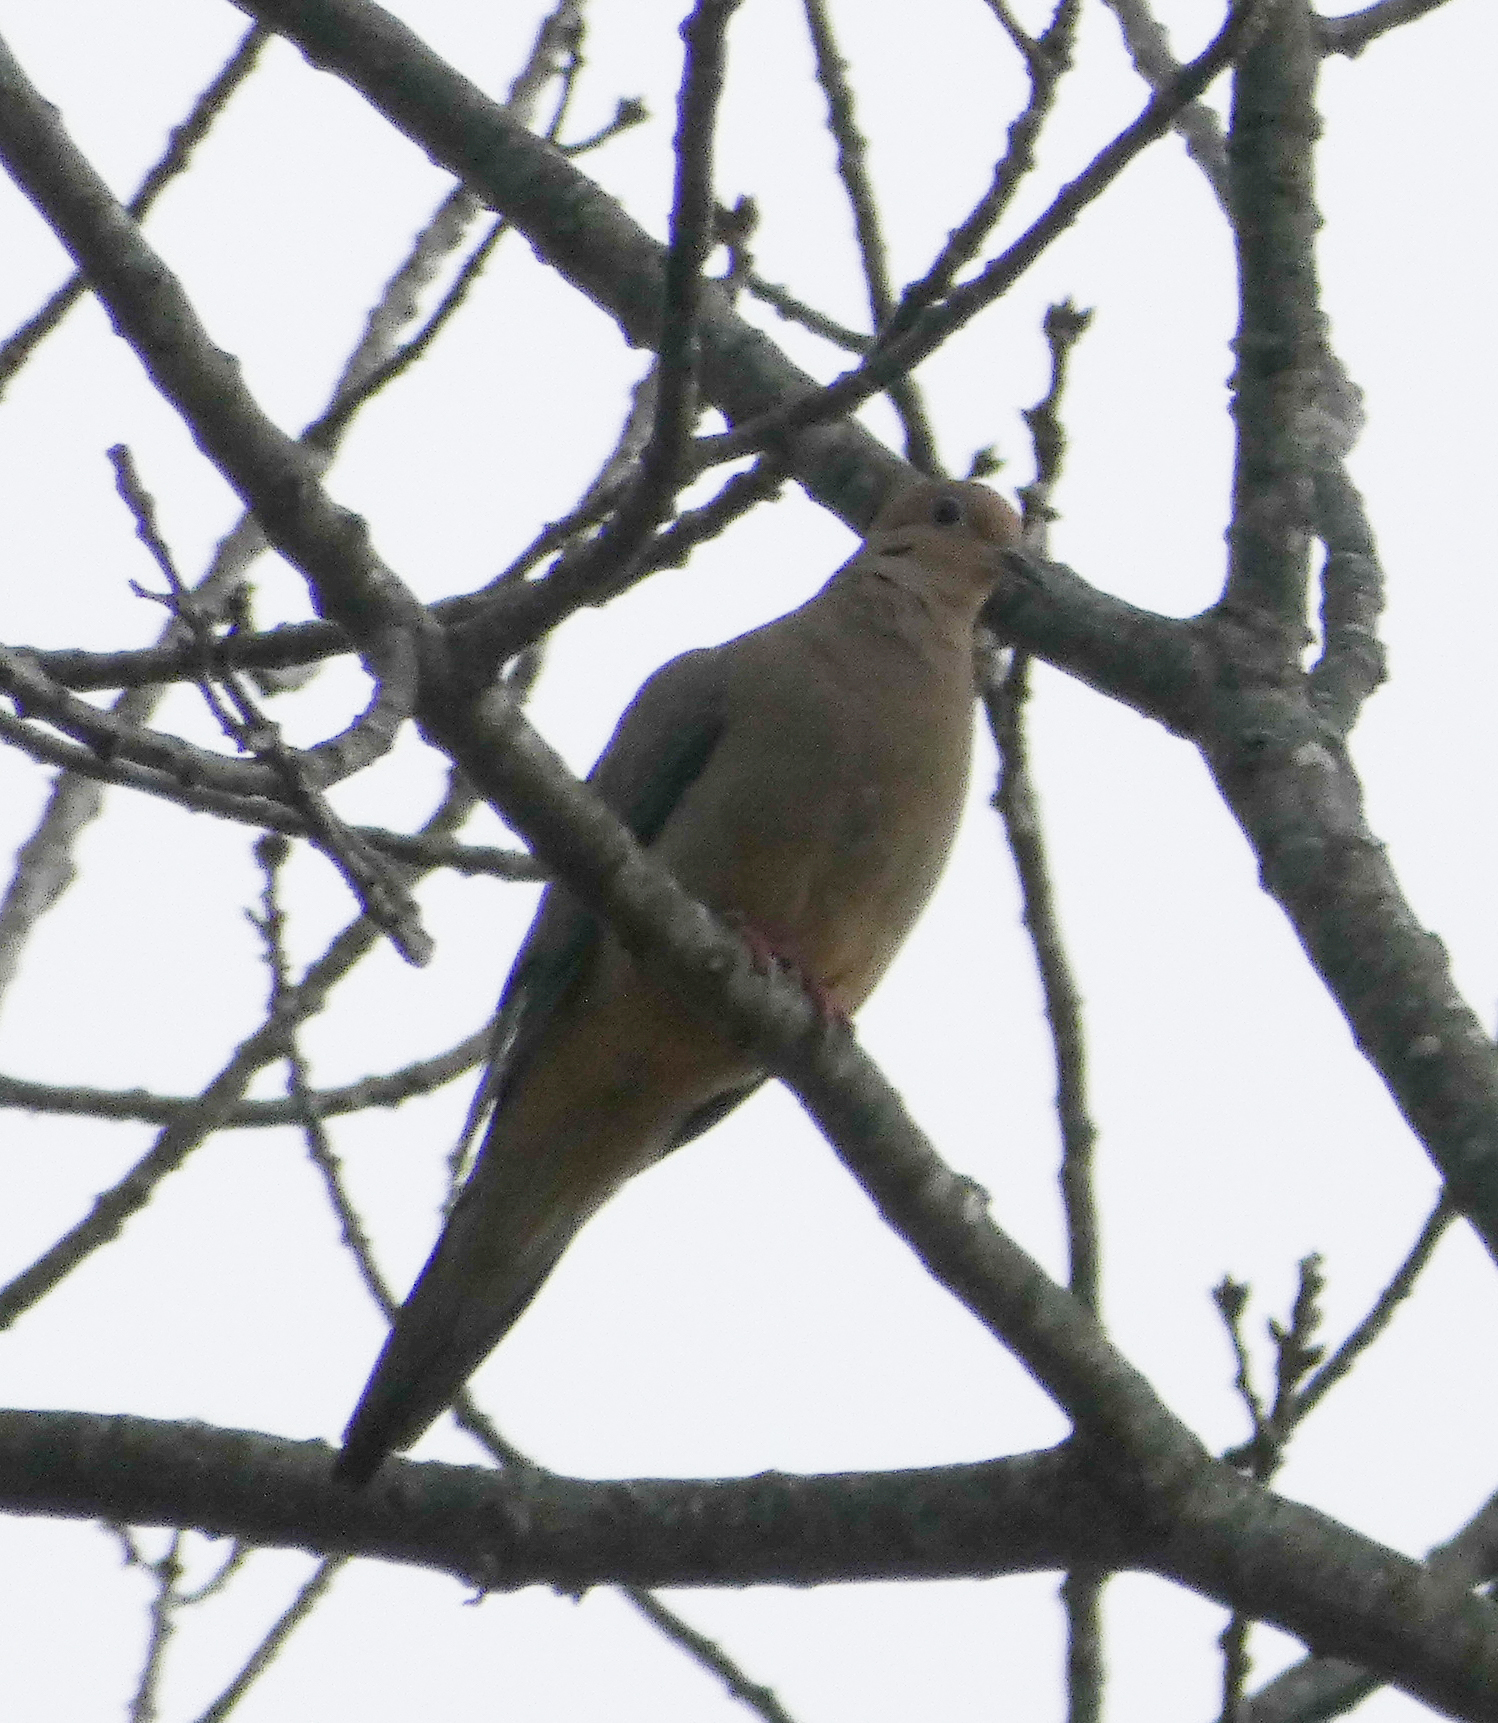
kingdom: Animalia
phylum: Chordata
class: Aves
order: Columbiformes
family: Columbidae
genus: Zenaida
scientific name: Zenaida macroura
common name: Mourning dove
